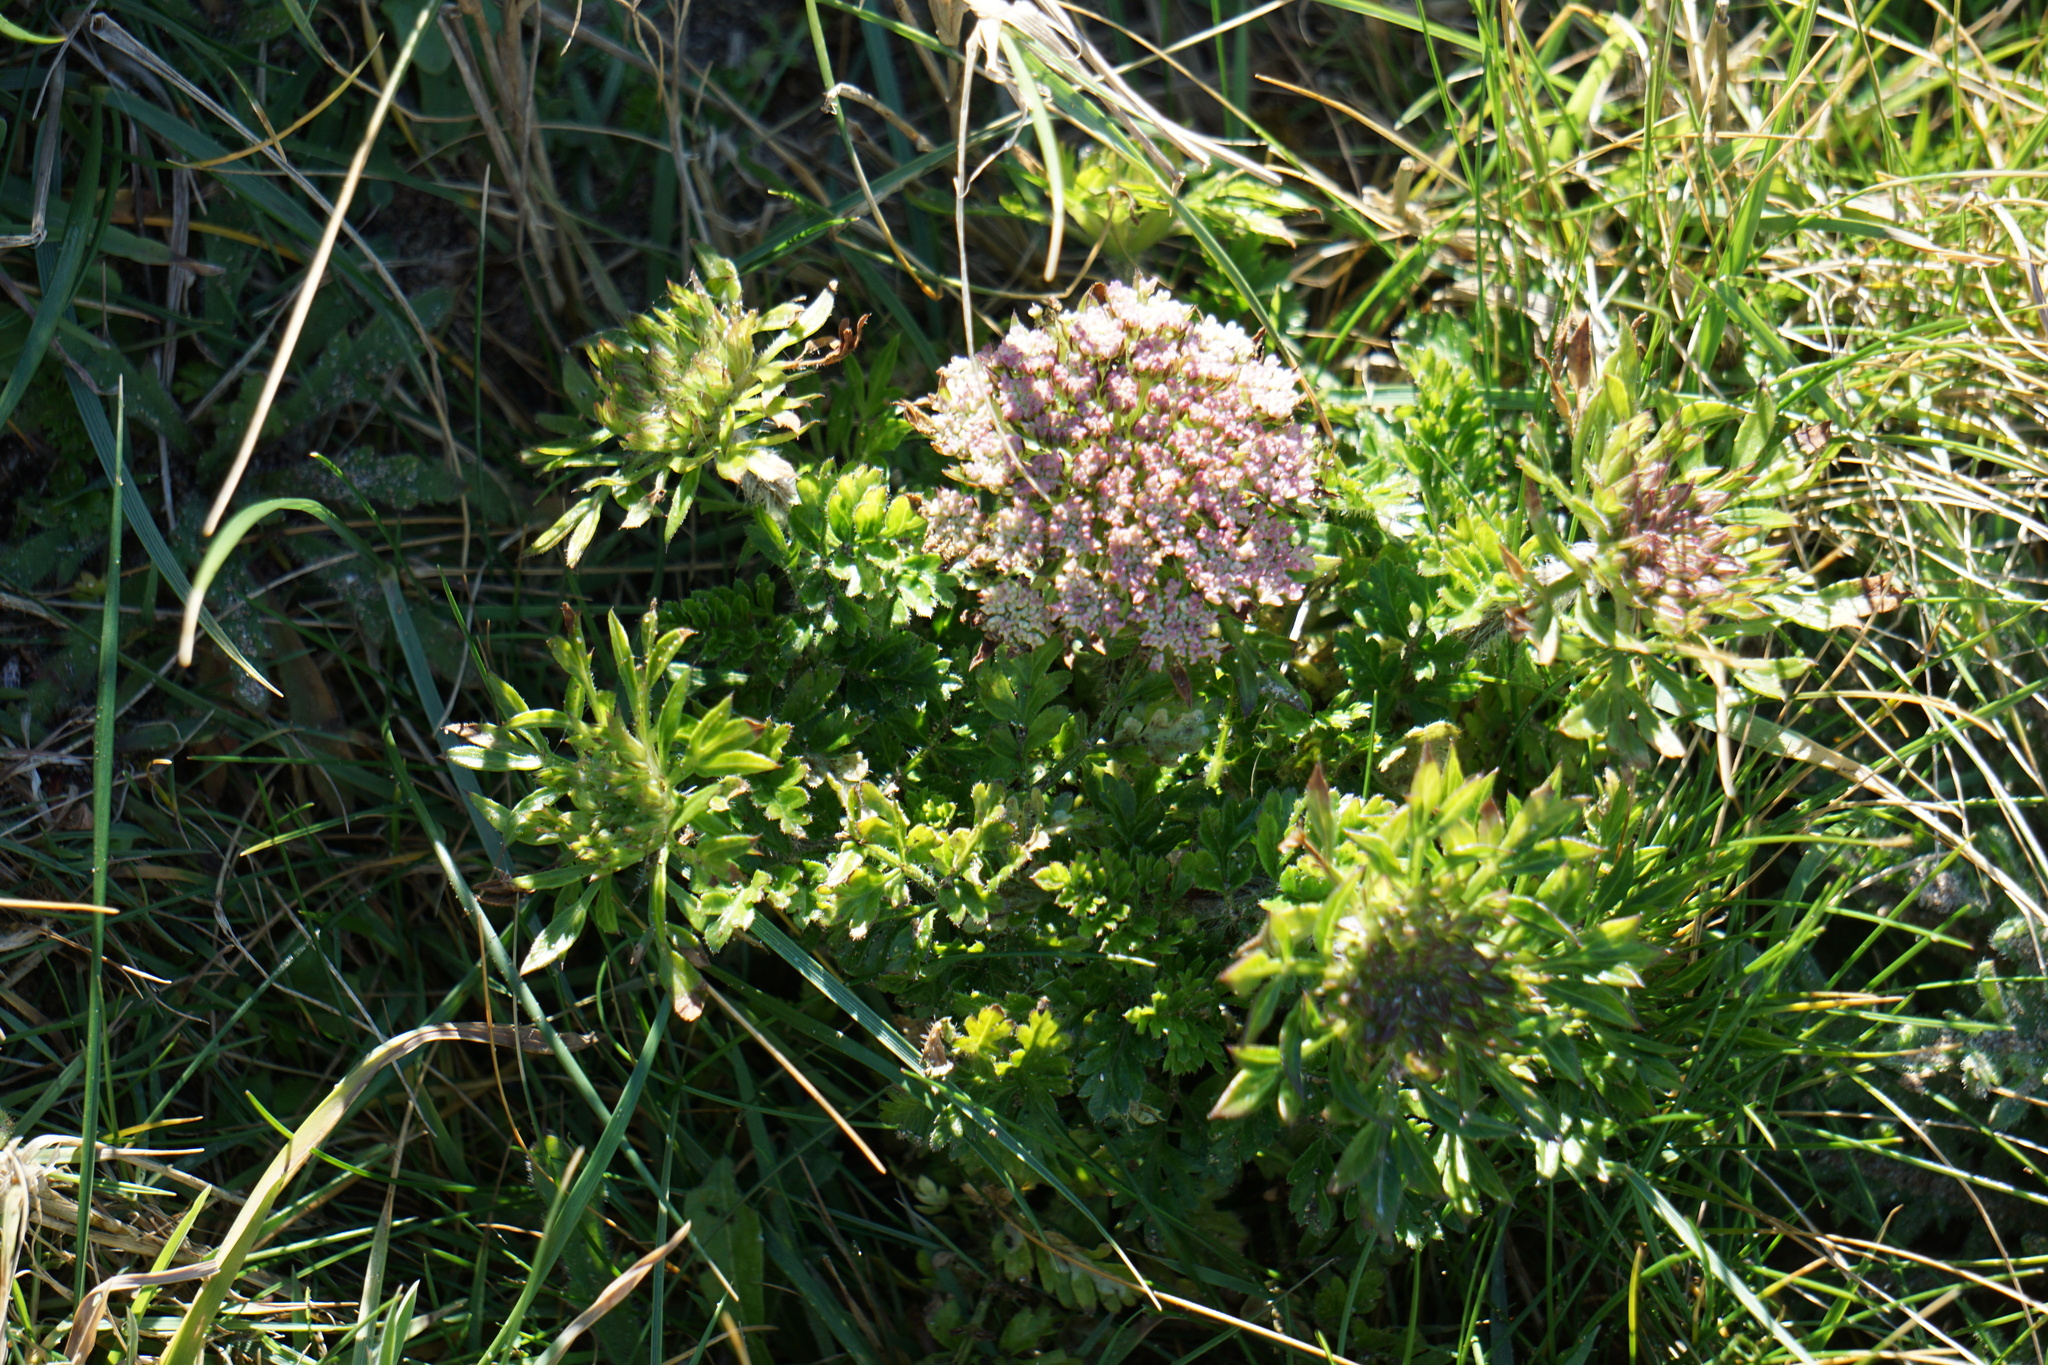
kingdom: Plantae
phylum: Tracheophyta
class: Magnoliopsida
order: Apiales
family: Apiaceae
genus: Daucus
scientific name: Daucus carota
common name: Wild carrot
